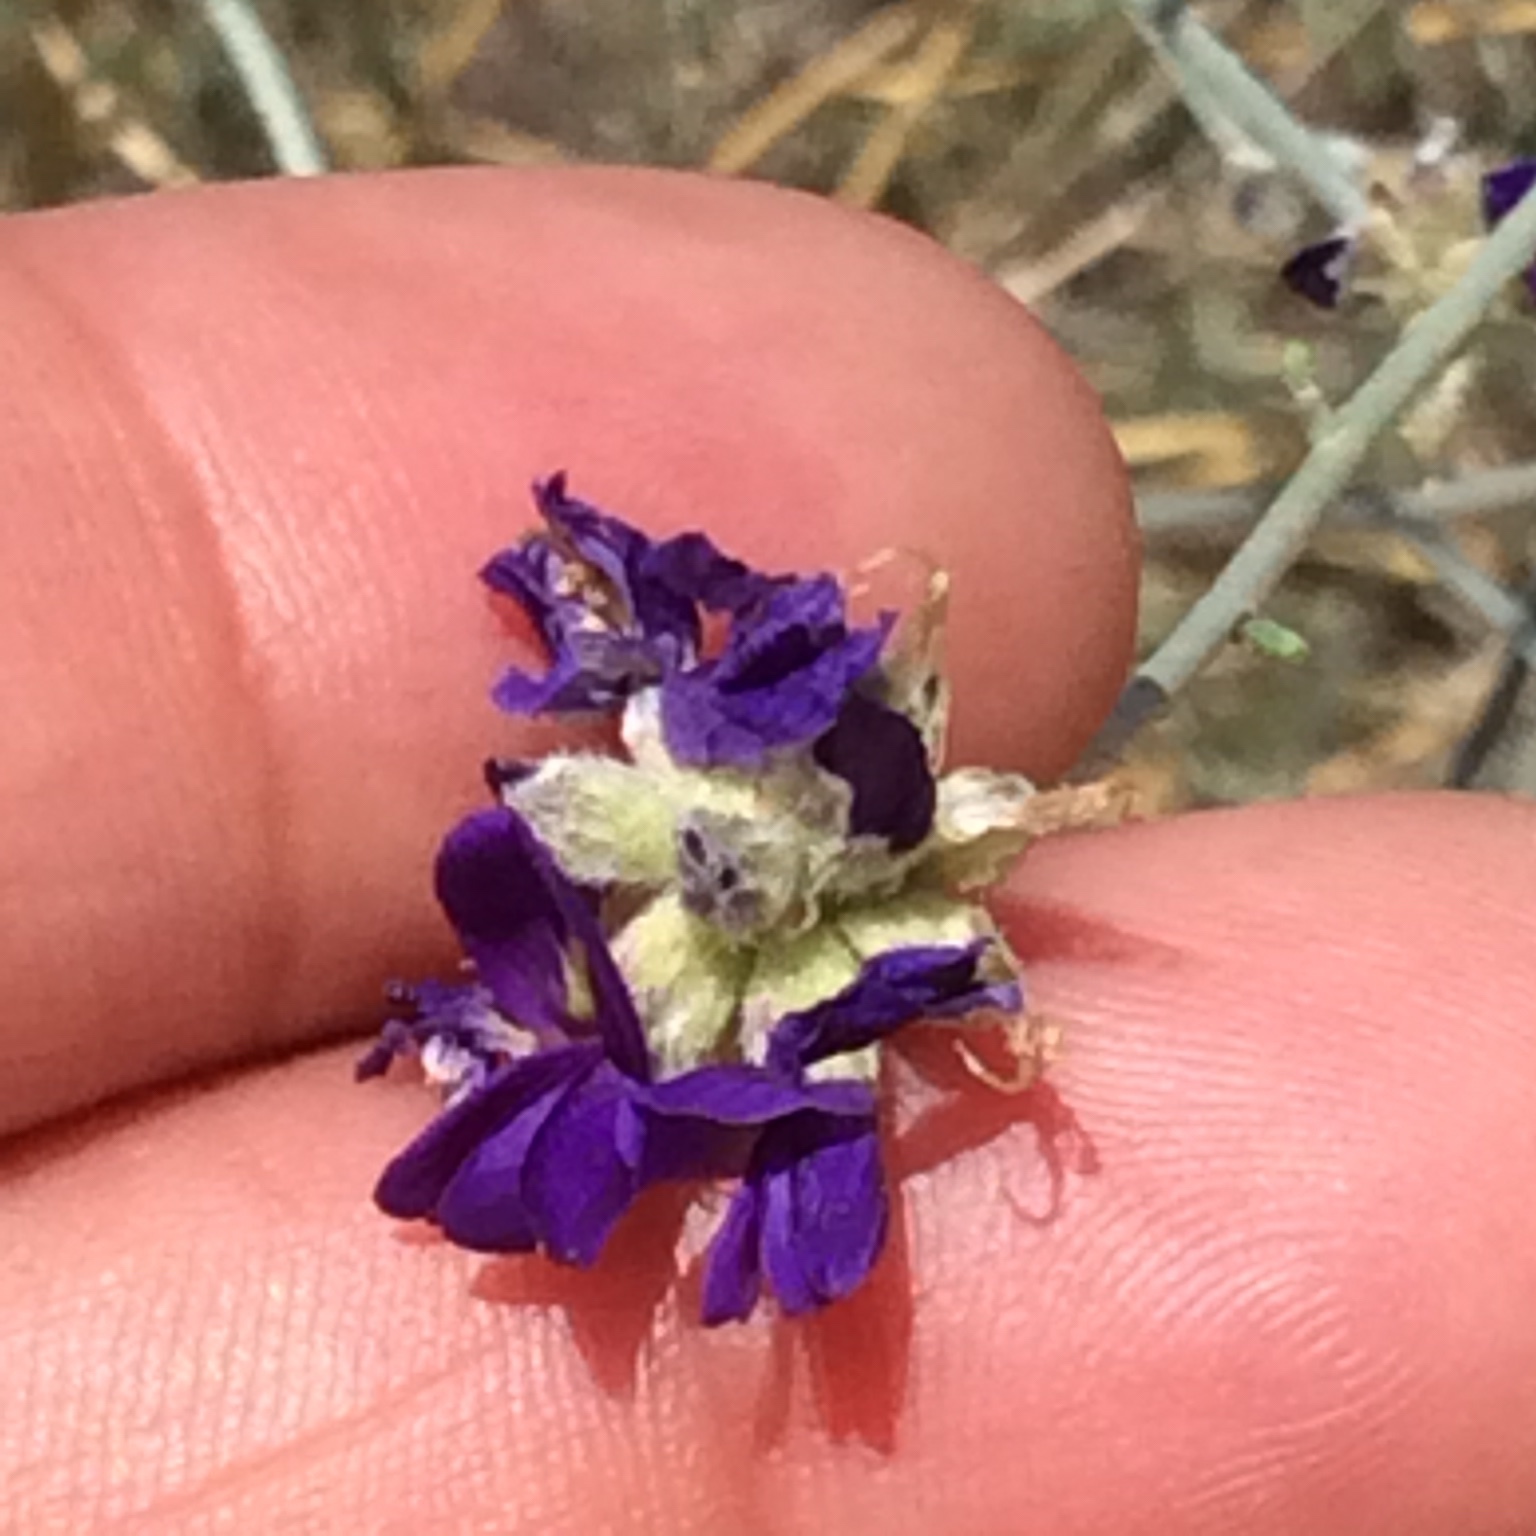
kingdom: Plantae
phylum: Tracheophyta
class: Magnoliopsida
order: Fabales
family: Fabaceae
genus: Psorothamnus
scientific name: Psorothamnus scoparius
